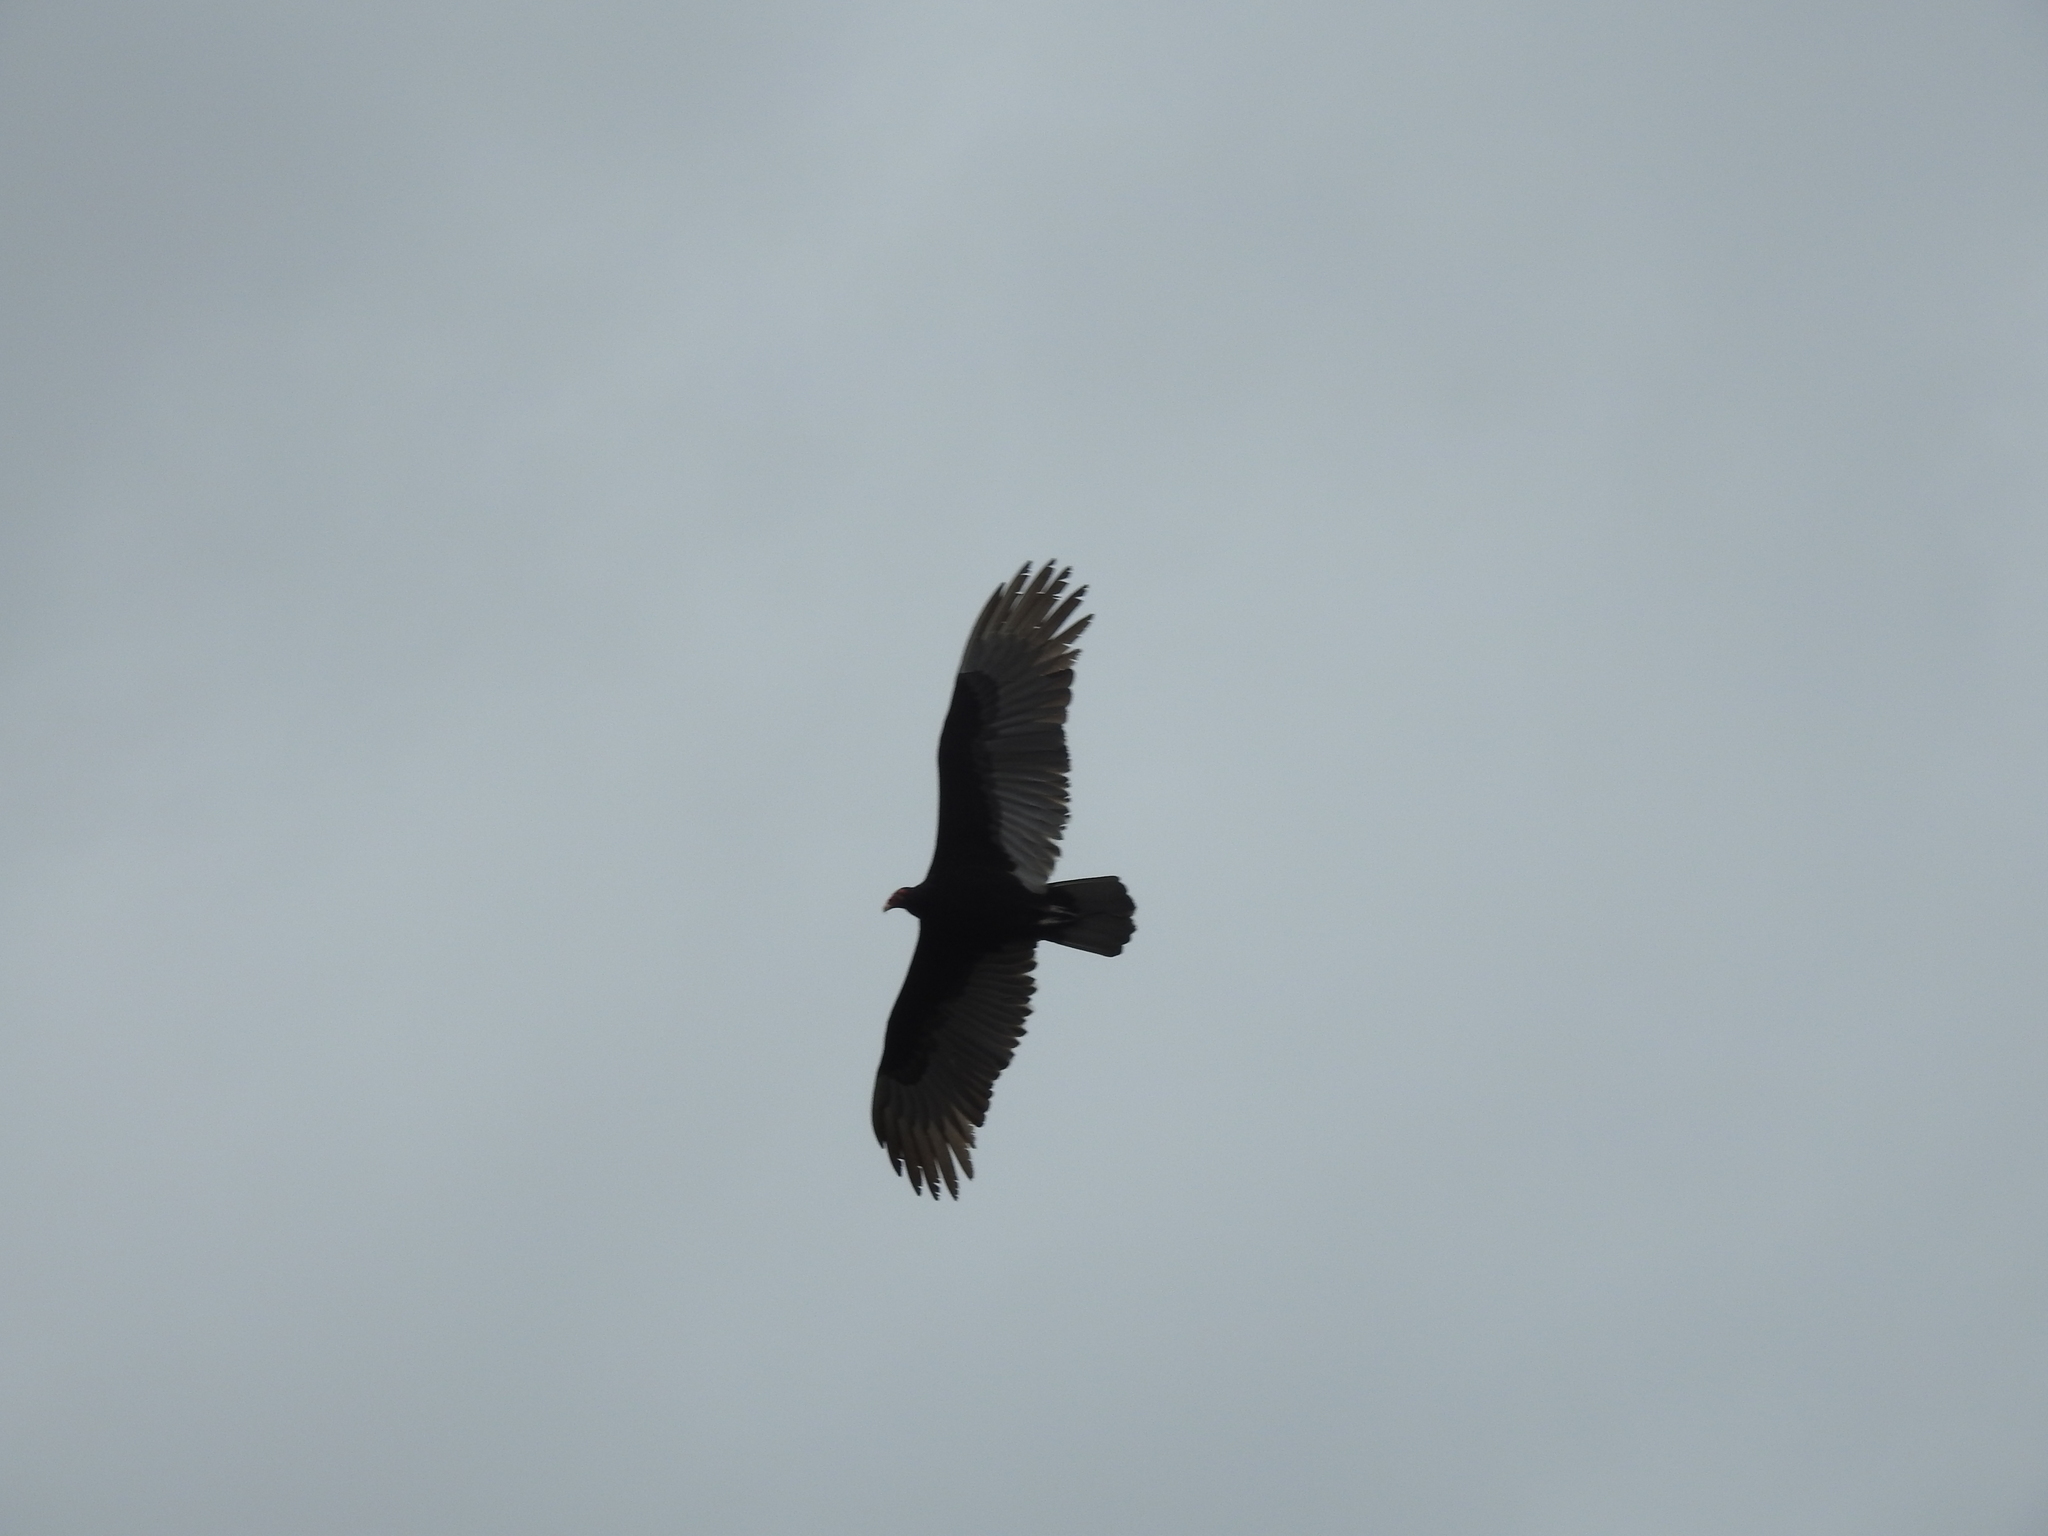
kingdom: Animalia
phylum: Chordata
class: Aves
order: Accipitriformes
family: Cathartidae
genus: Cathartes
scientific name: Cathartes aura
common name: Turkey vulture
